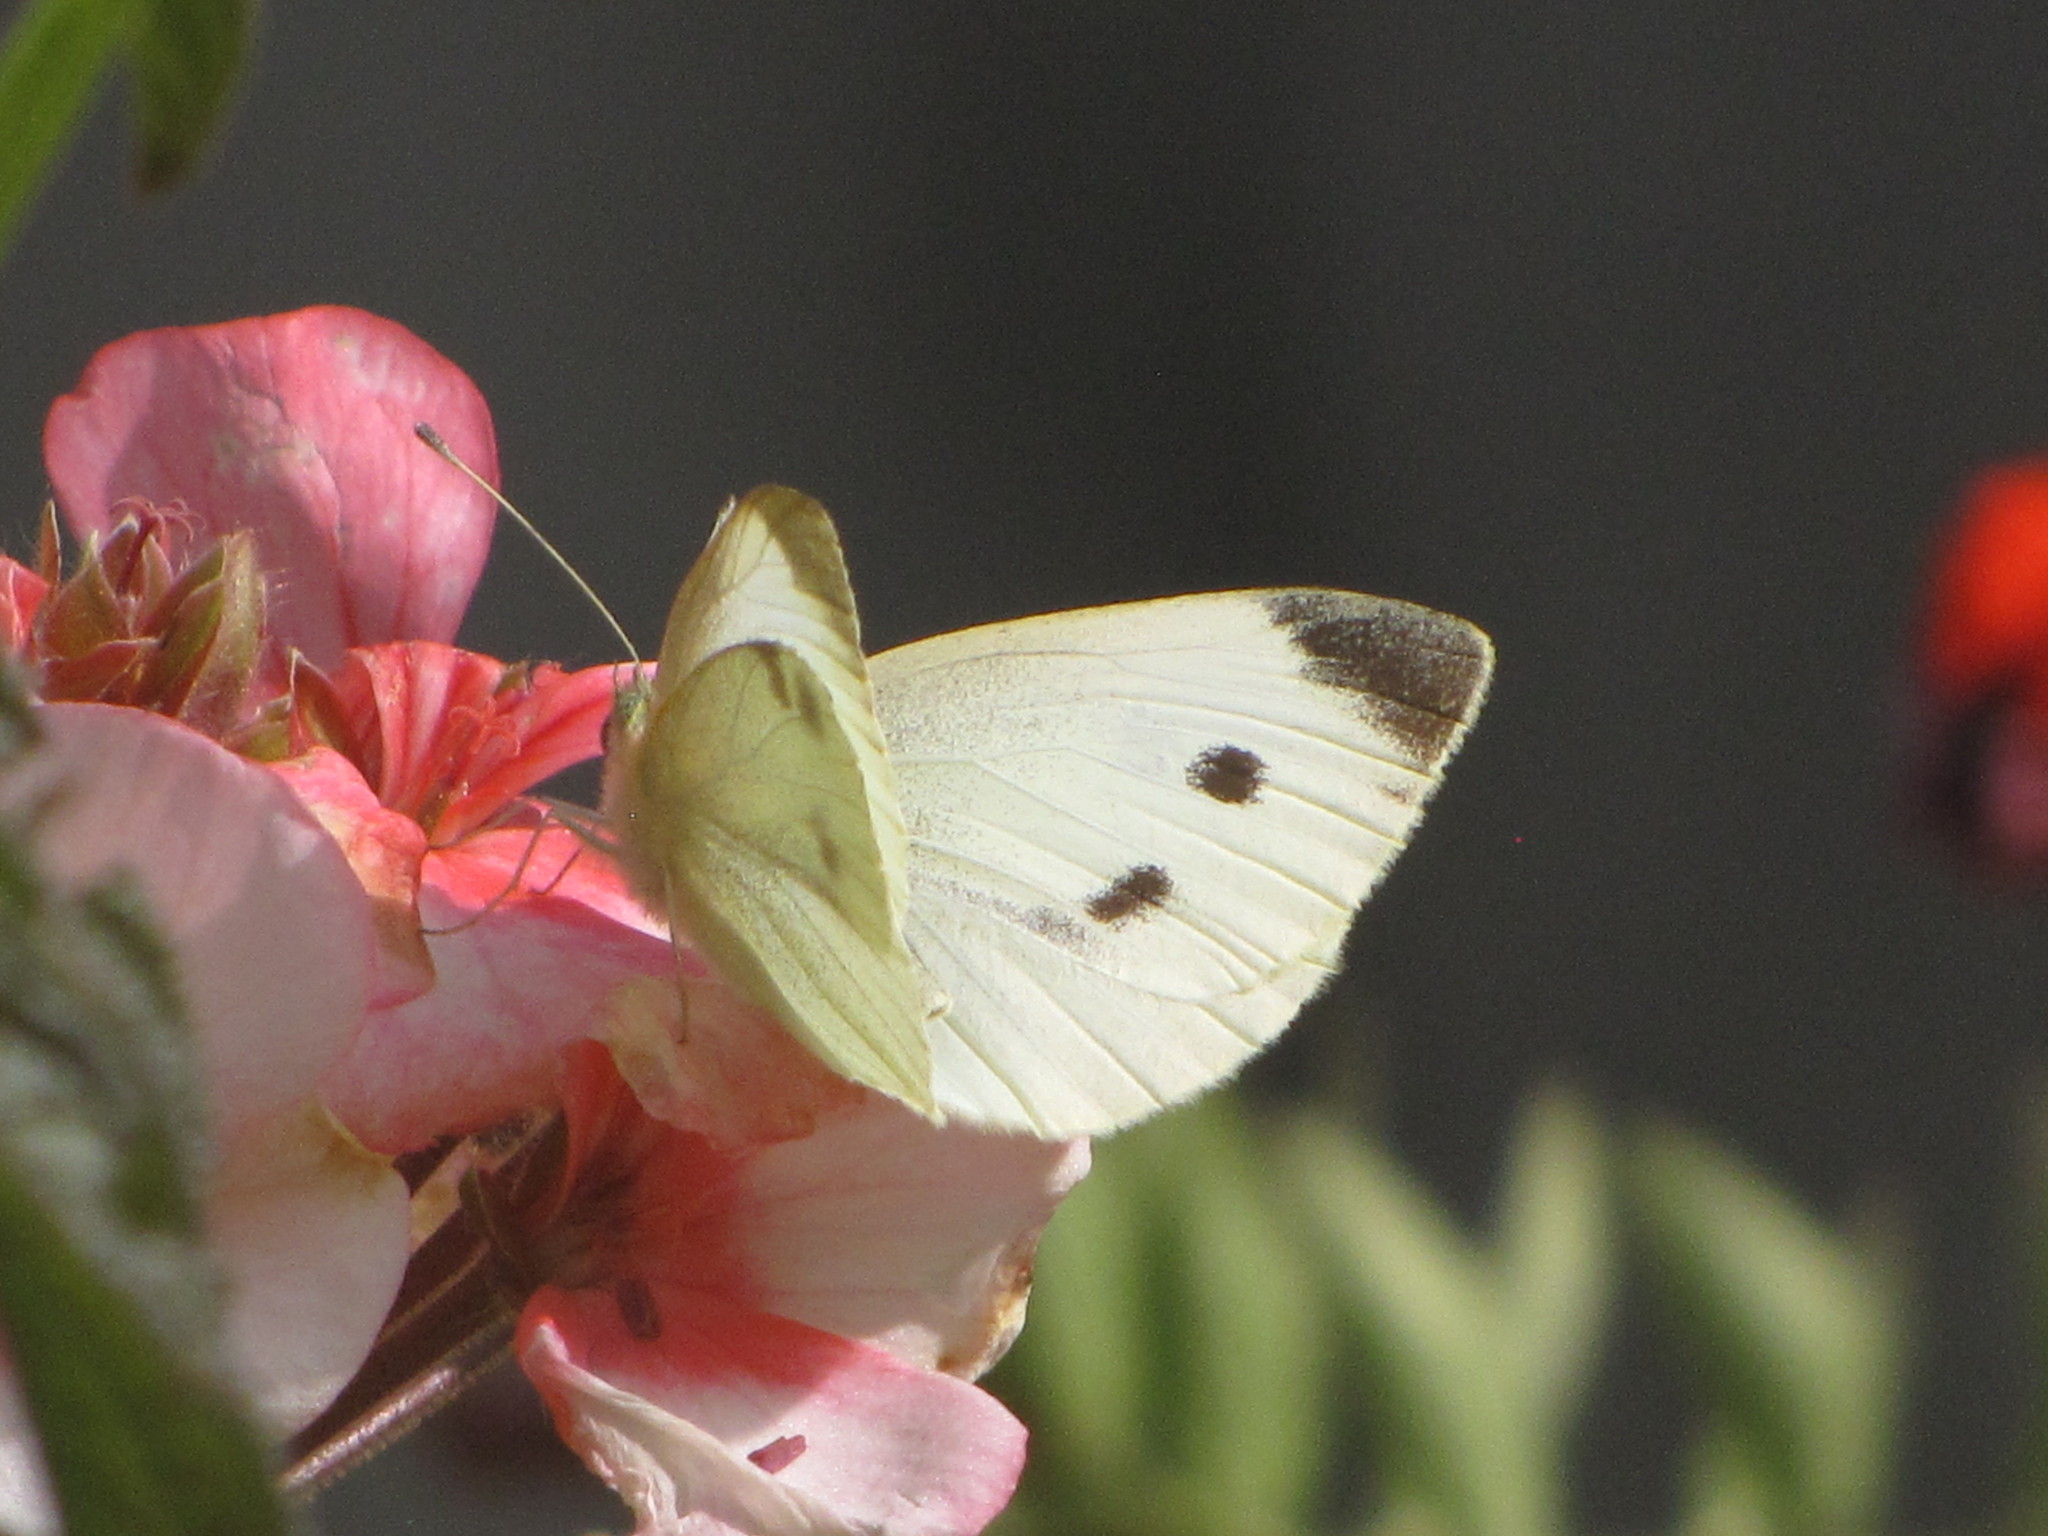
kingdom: Animalia
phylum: Arthropoda
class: Insecta
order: Lepidoptera
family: Pieridae
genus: Pieris
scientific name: Pieris rapae
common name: Small white
